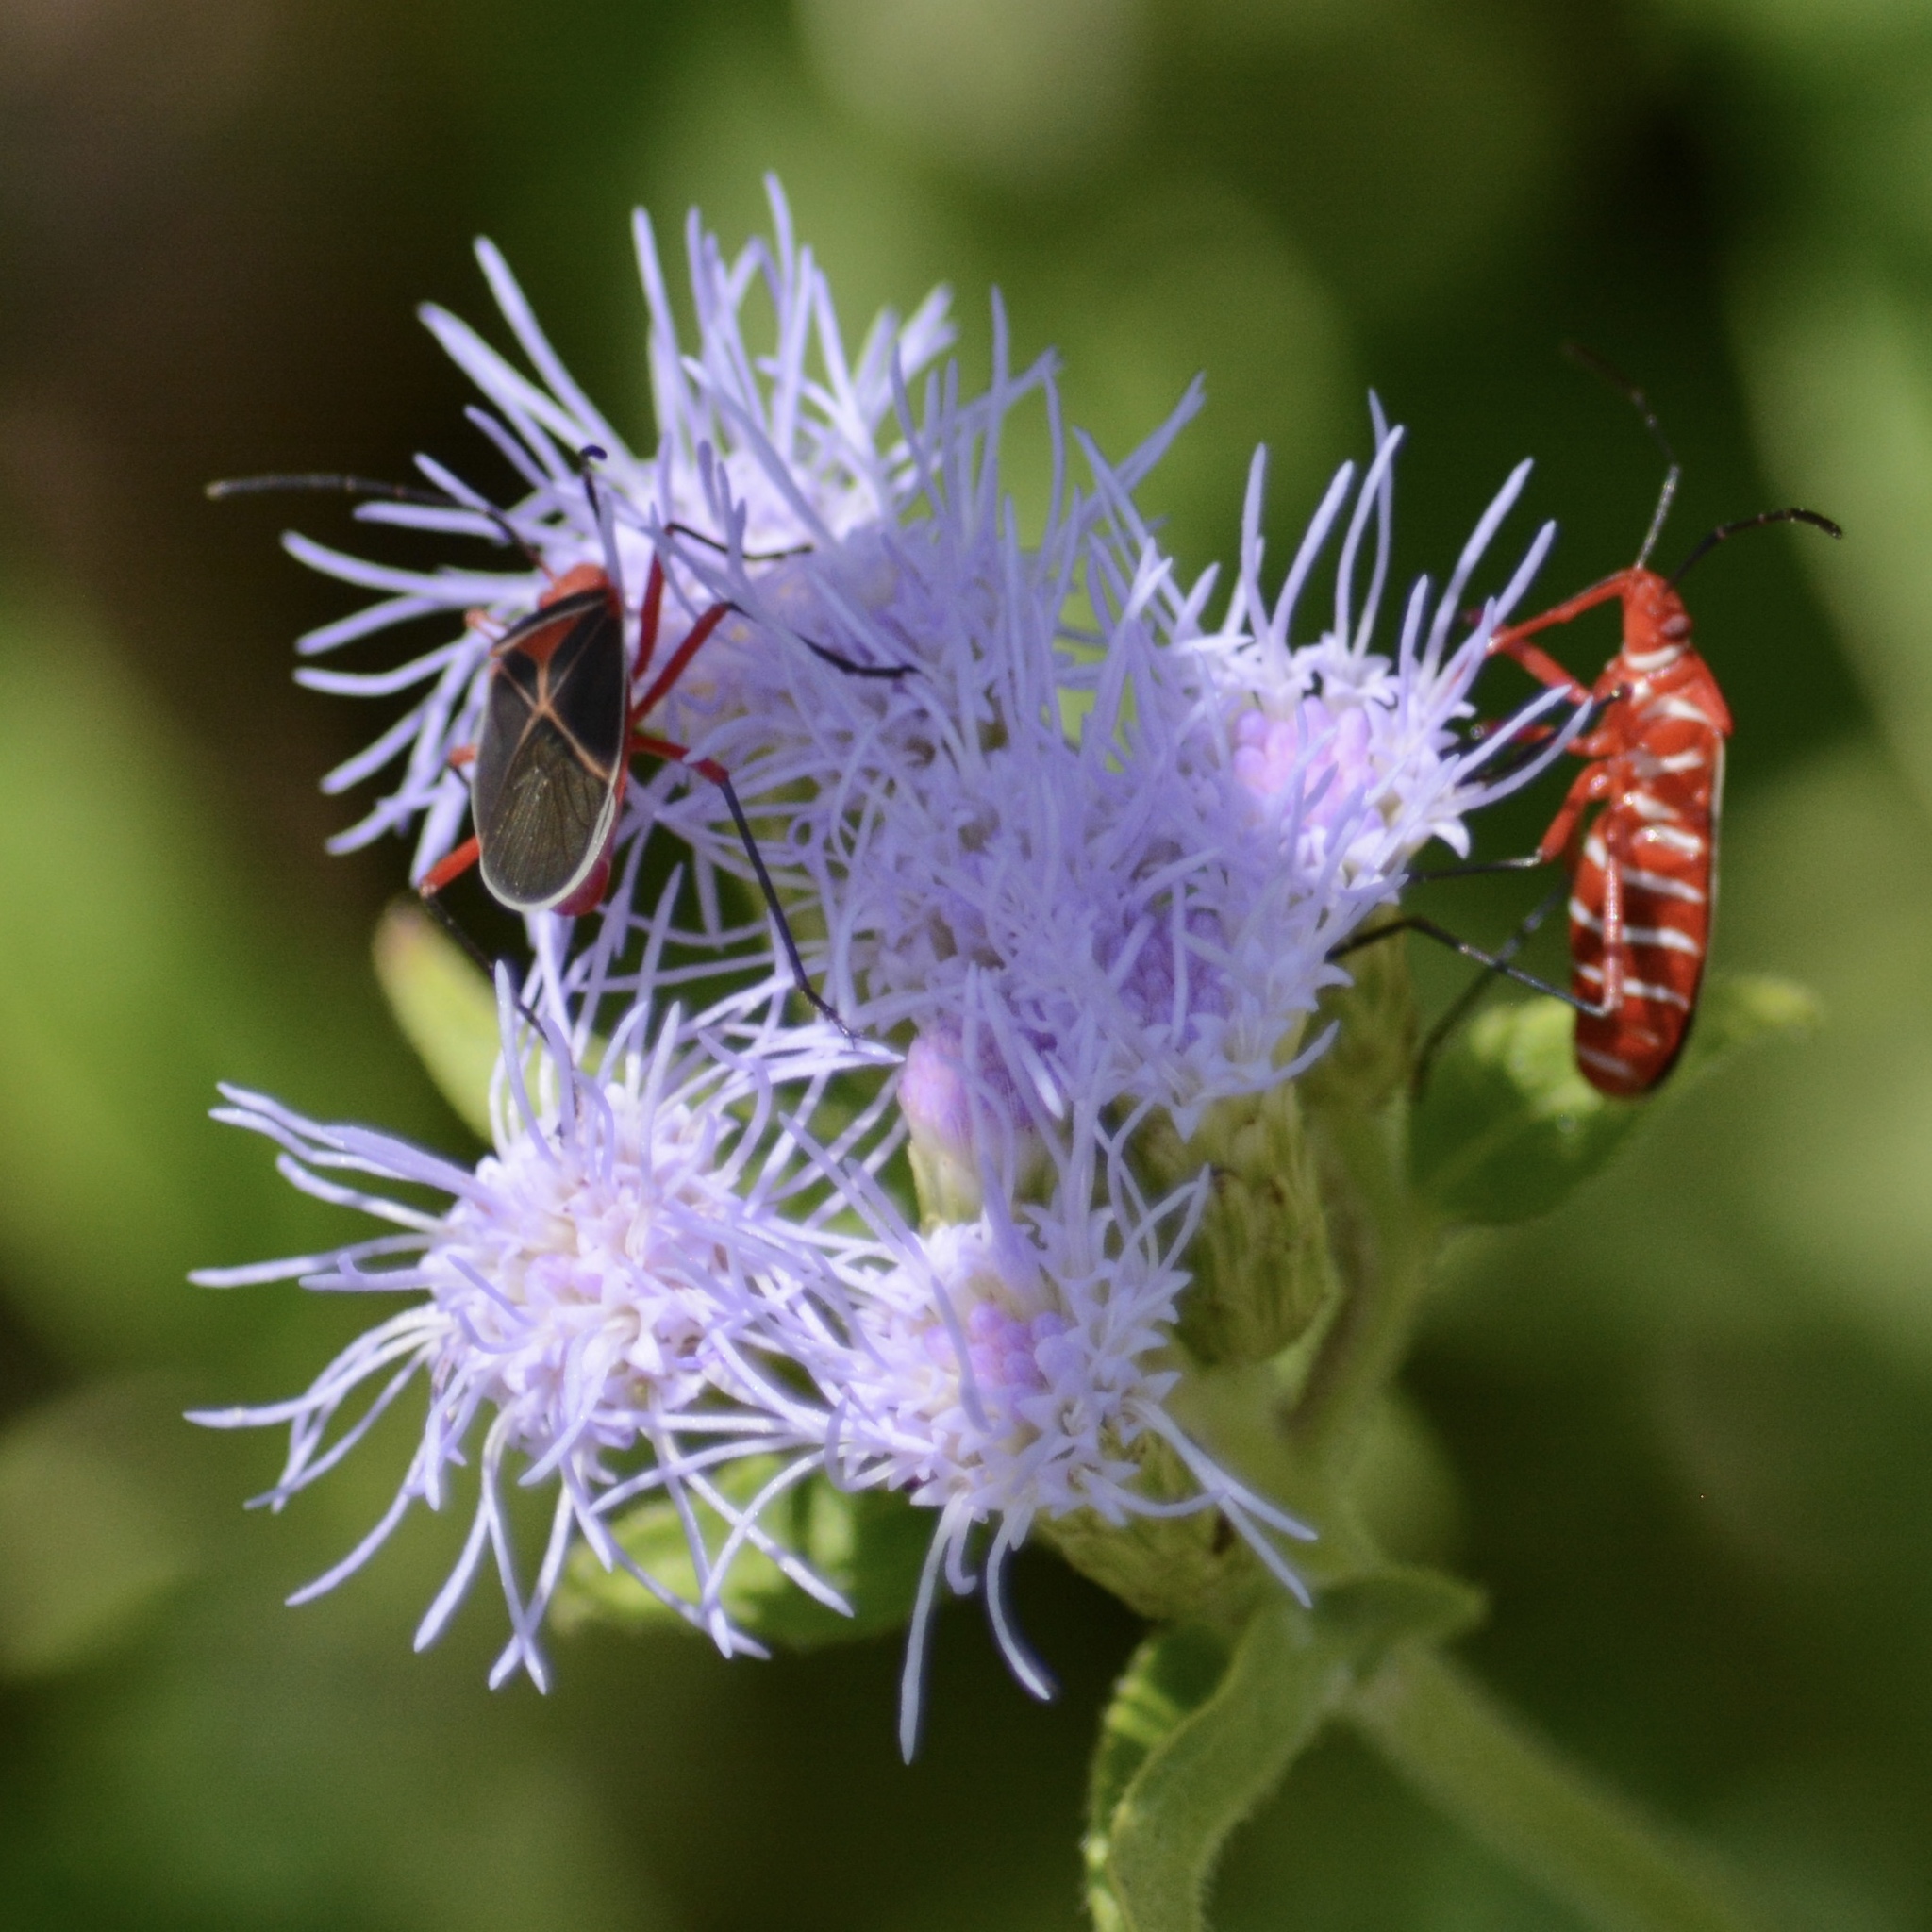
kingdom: Animalia
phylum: Arthropoda
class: Insecta
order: Hemiptera
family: Pyrrhocoridae
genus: Dysdercus
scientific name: Dysdercus suturellus
